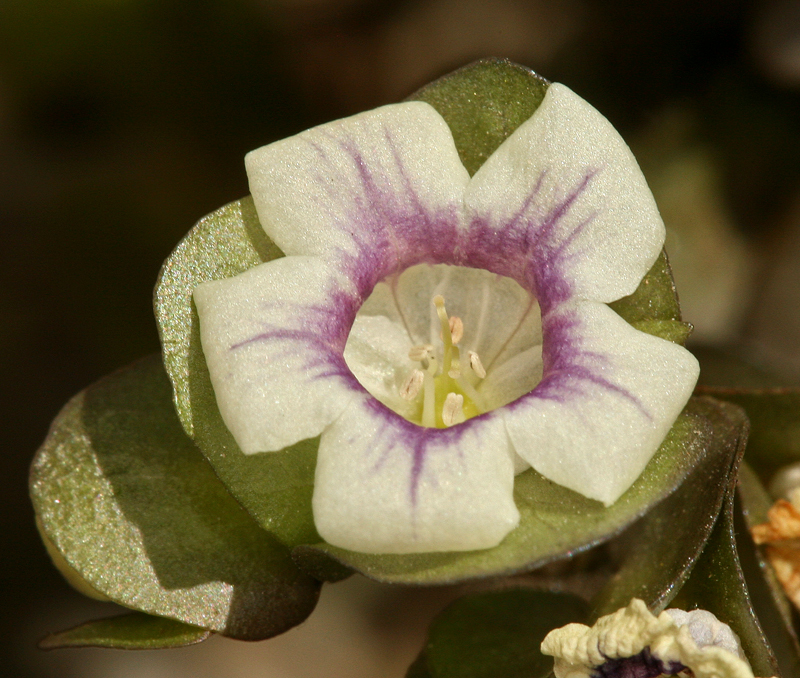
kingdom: Plantae
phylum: Tracheophyta
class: Magnoliopsida
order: Boraginales
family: Hydrophyllaceae
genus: Tricardia
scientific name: Tricardia watsonii
